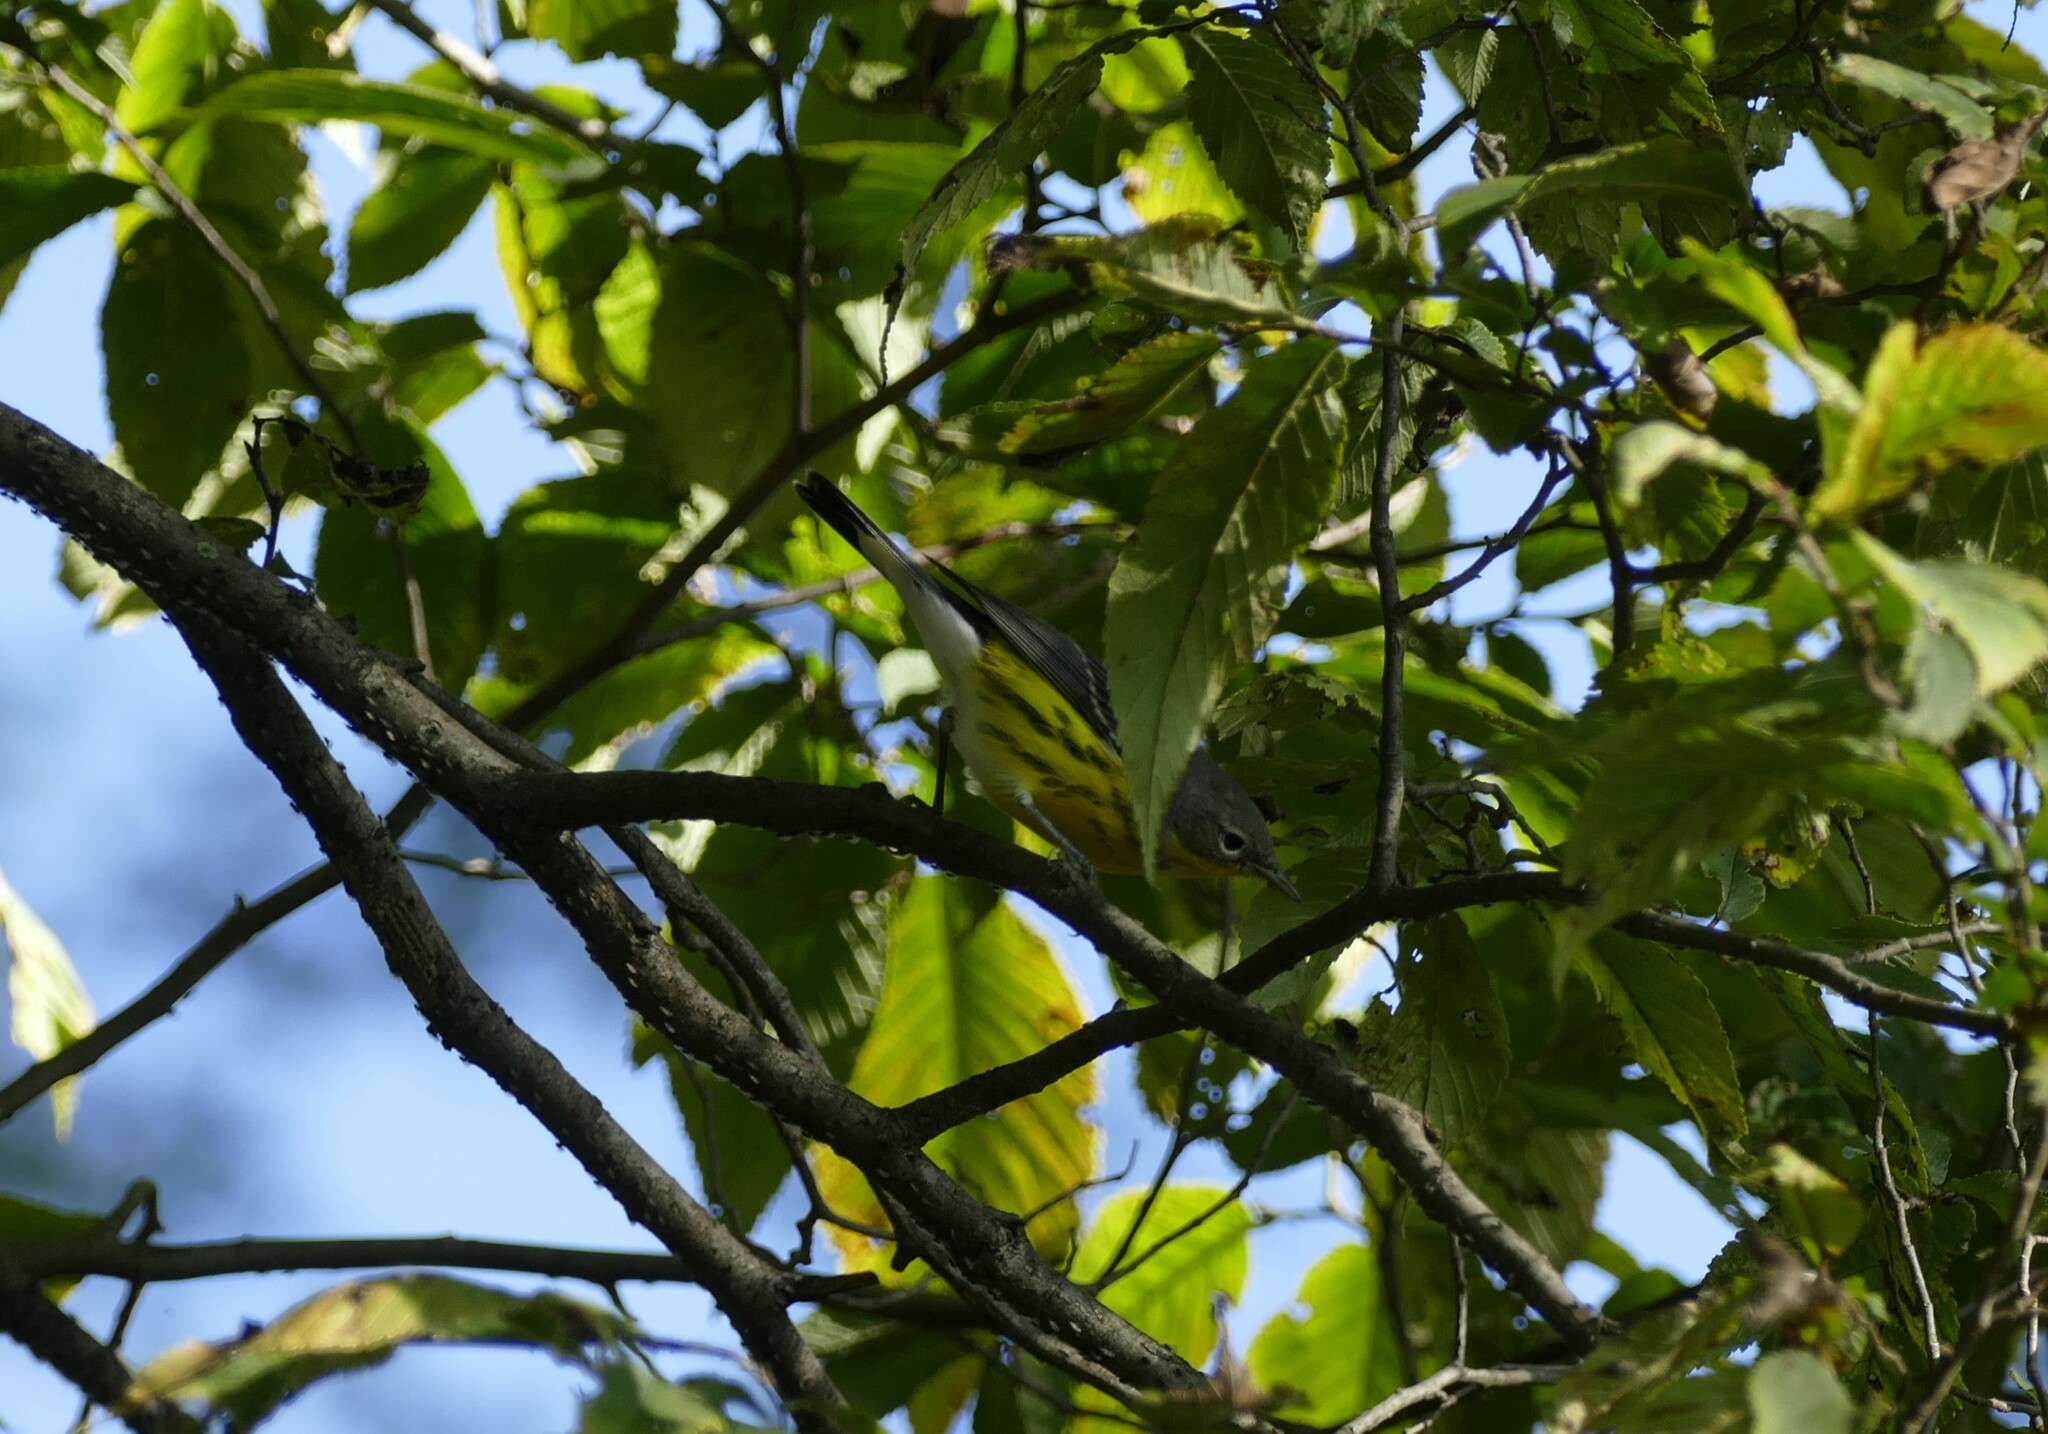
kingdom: Animalia
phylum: Chordata
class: Aves
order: Passeriformes
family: Parulidae
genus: Setophaga
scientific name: Setophaga magnolia
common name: Magnolia warbler
